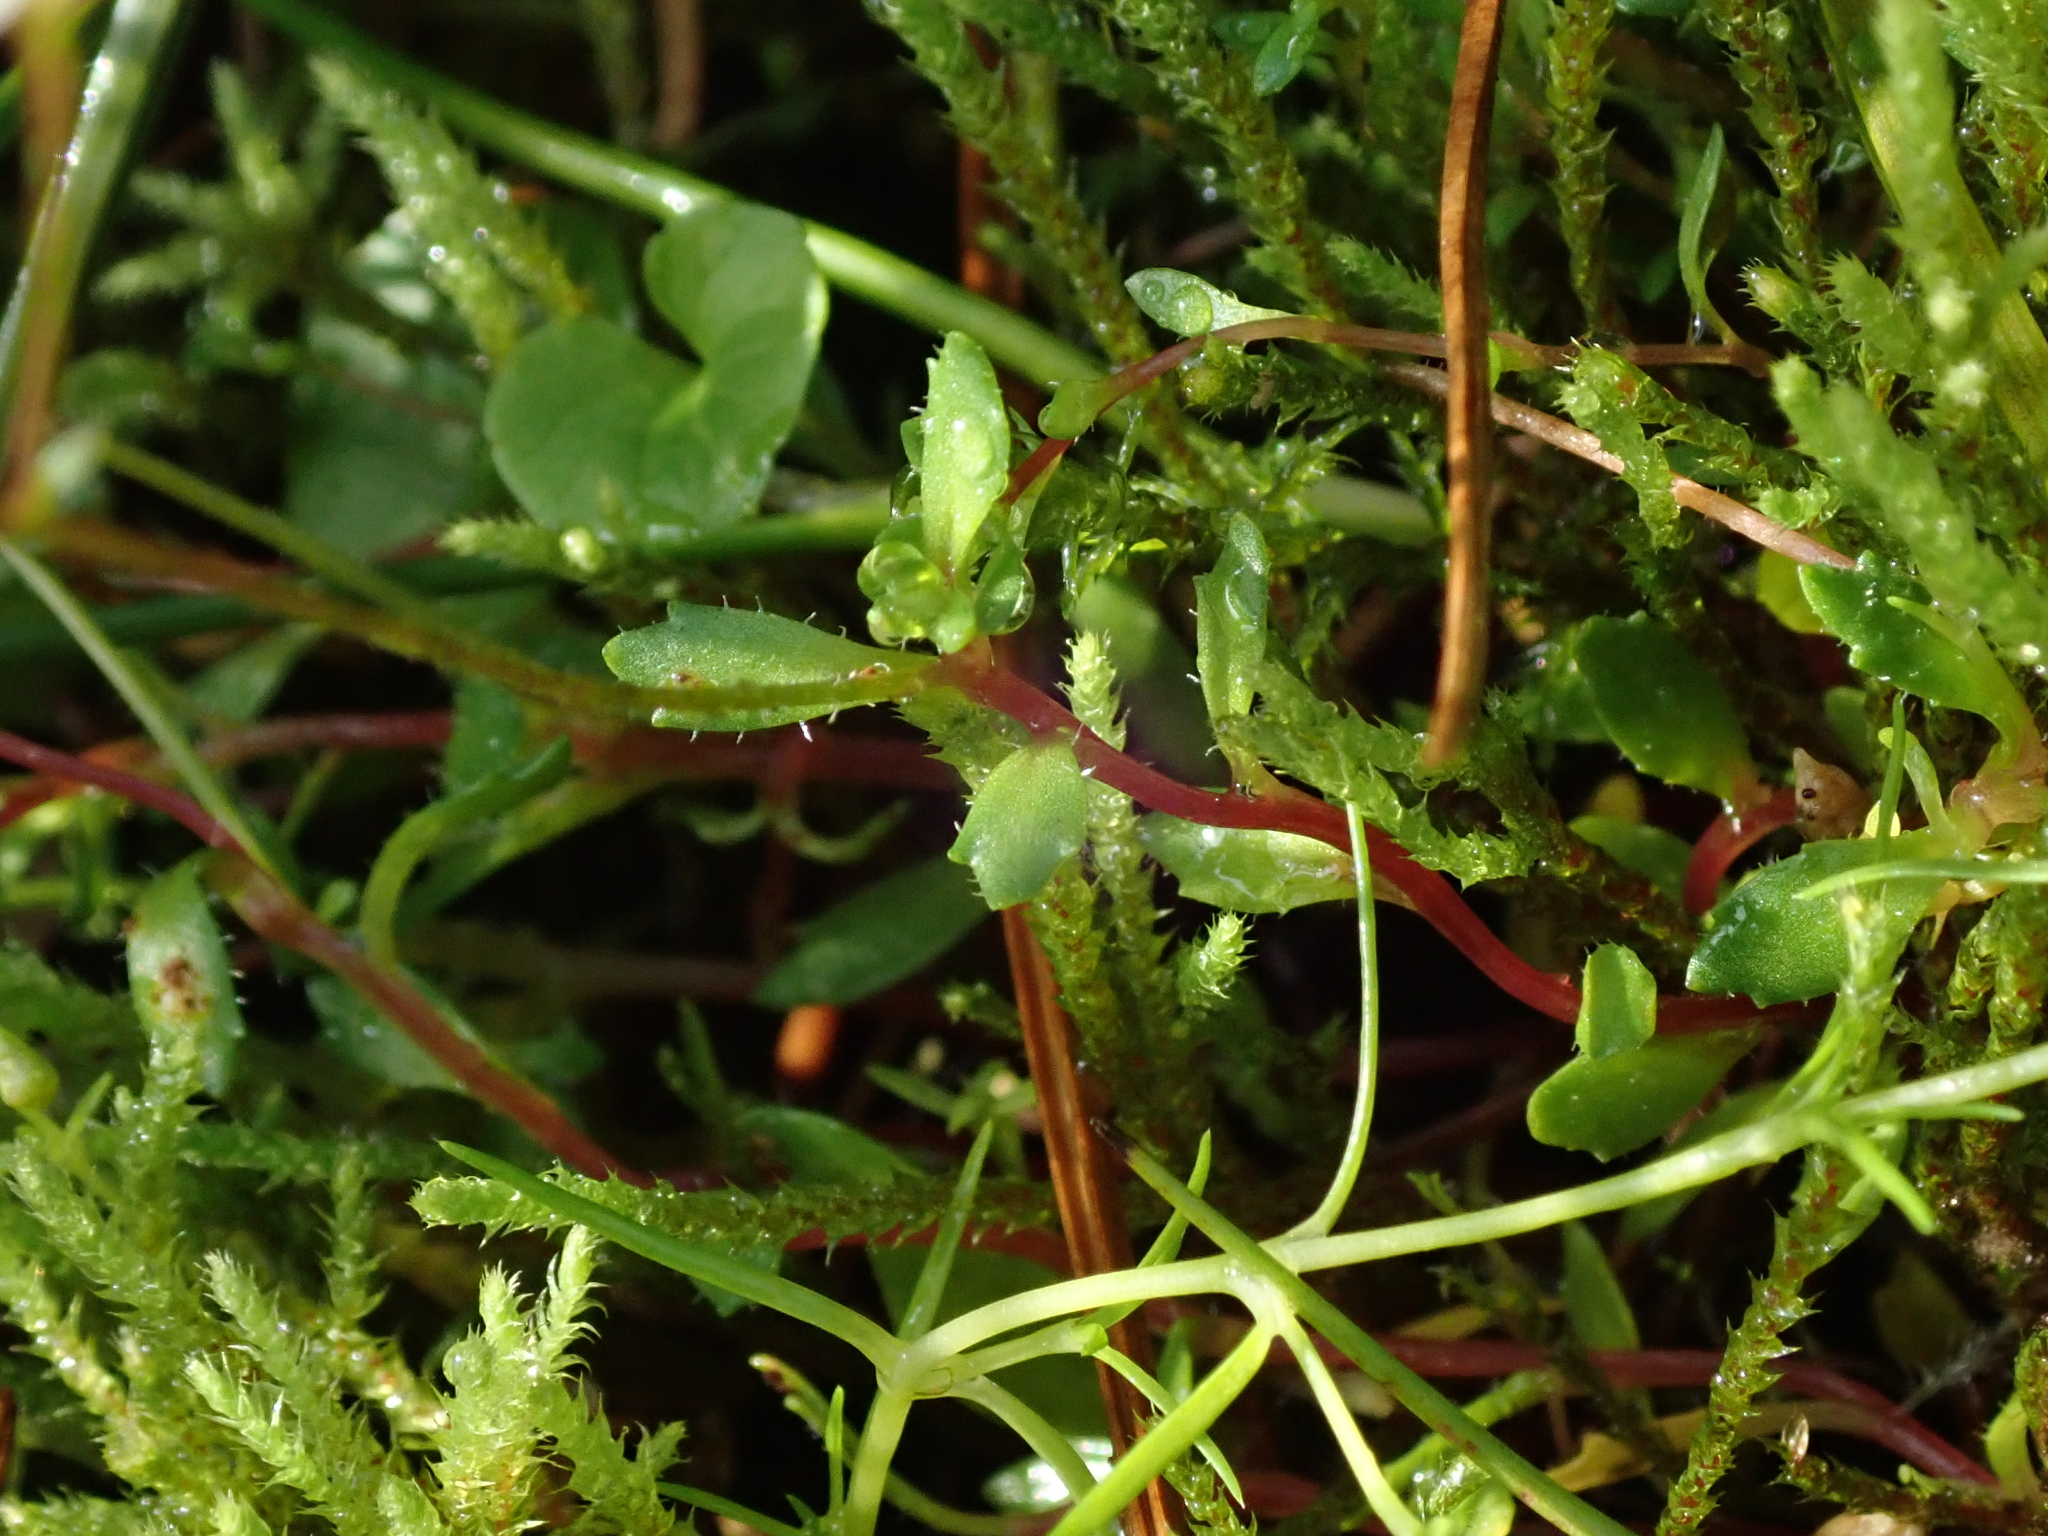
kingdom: Plantae
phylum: Tracheophyta
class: Magnoliopsida
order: Saxifragales
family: Saxifragaceae
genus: Micranthes
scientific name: Micranthes stellaris
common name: Starry saxifrage
